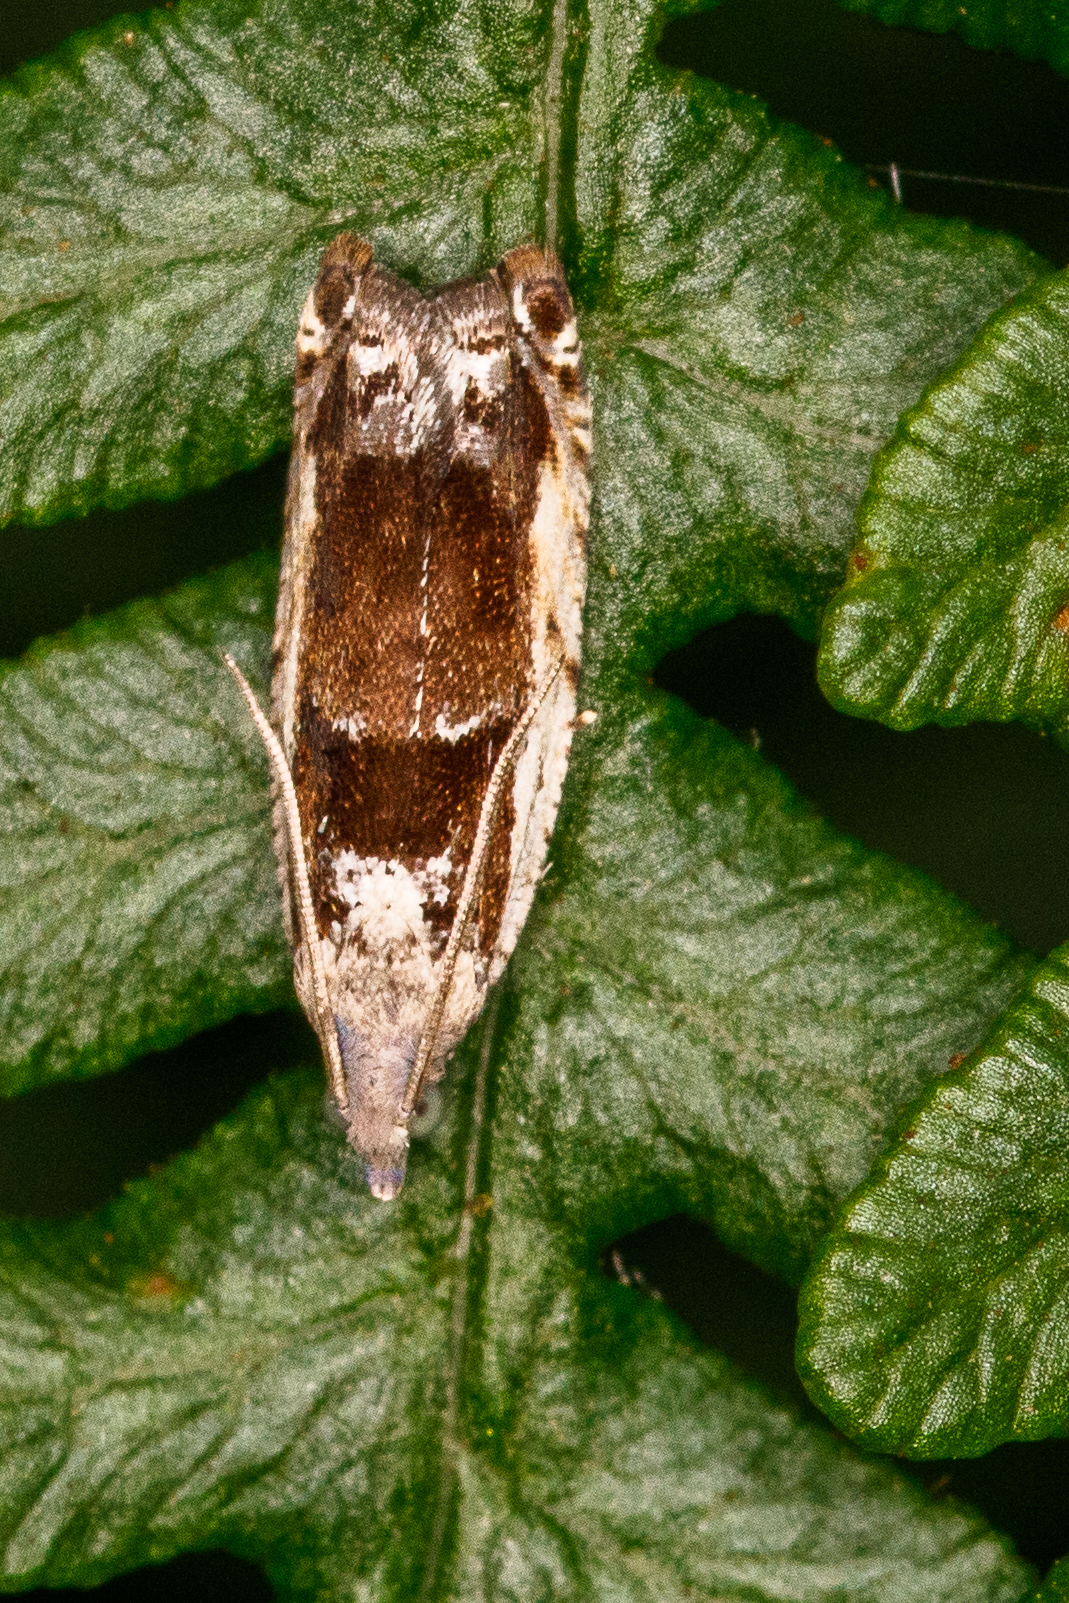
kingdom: Animalia
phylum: Arthropoda
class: Insecta
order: Lepidoptera
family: Tortricidae
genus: Epinotia
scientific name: Epinotia ramella
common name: Small birch bell
